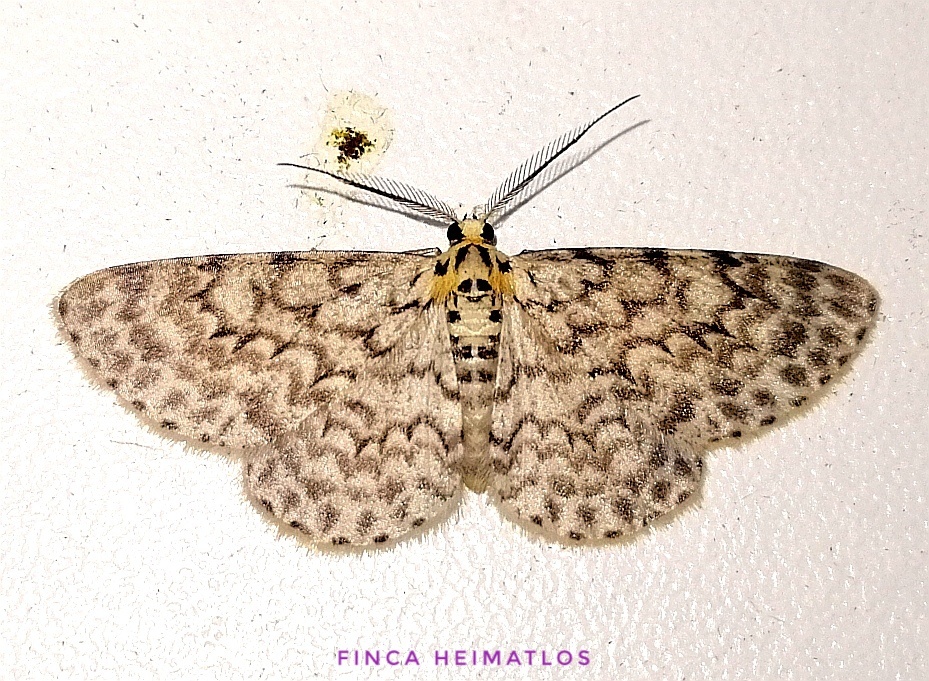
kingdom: Animalia
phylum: Arthropoda
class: Insecta
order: Lepidoptera
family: Geometridae
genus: Hymenomima
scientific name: Hymenomima umbelularia
